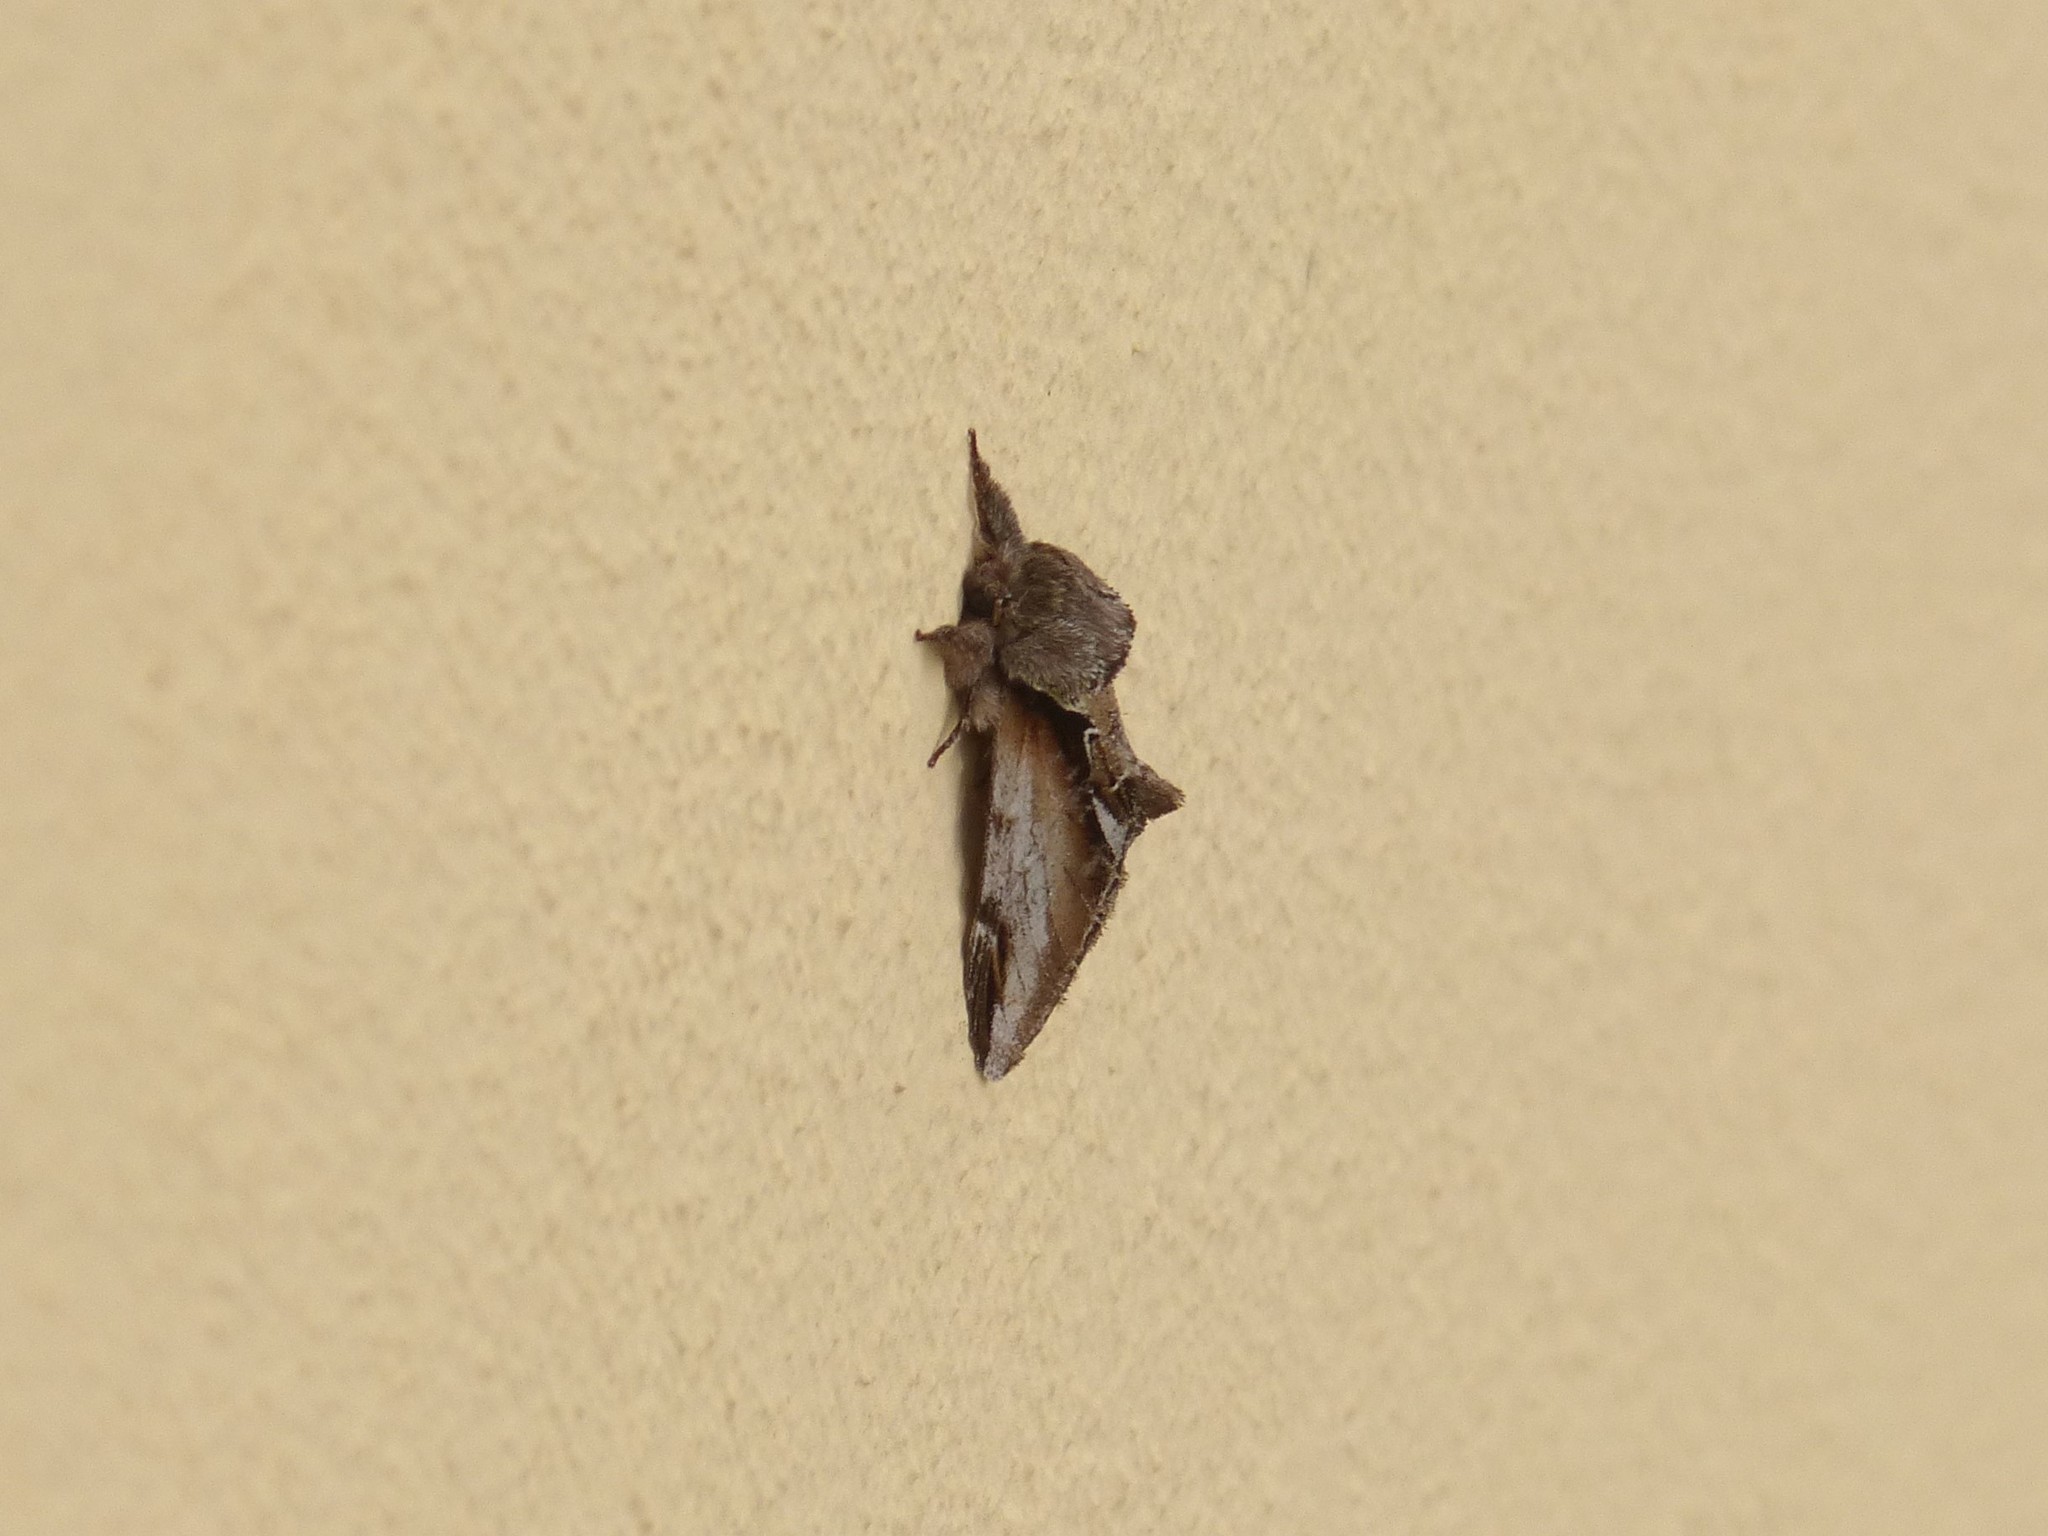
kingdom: Animalia
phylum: Arthropoda
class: Insecta
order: Lepidoptera
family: Notodontidae
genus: Pheosia
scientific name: Pheosia gnoma
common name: Lesser swallow prominent
